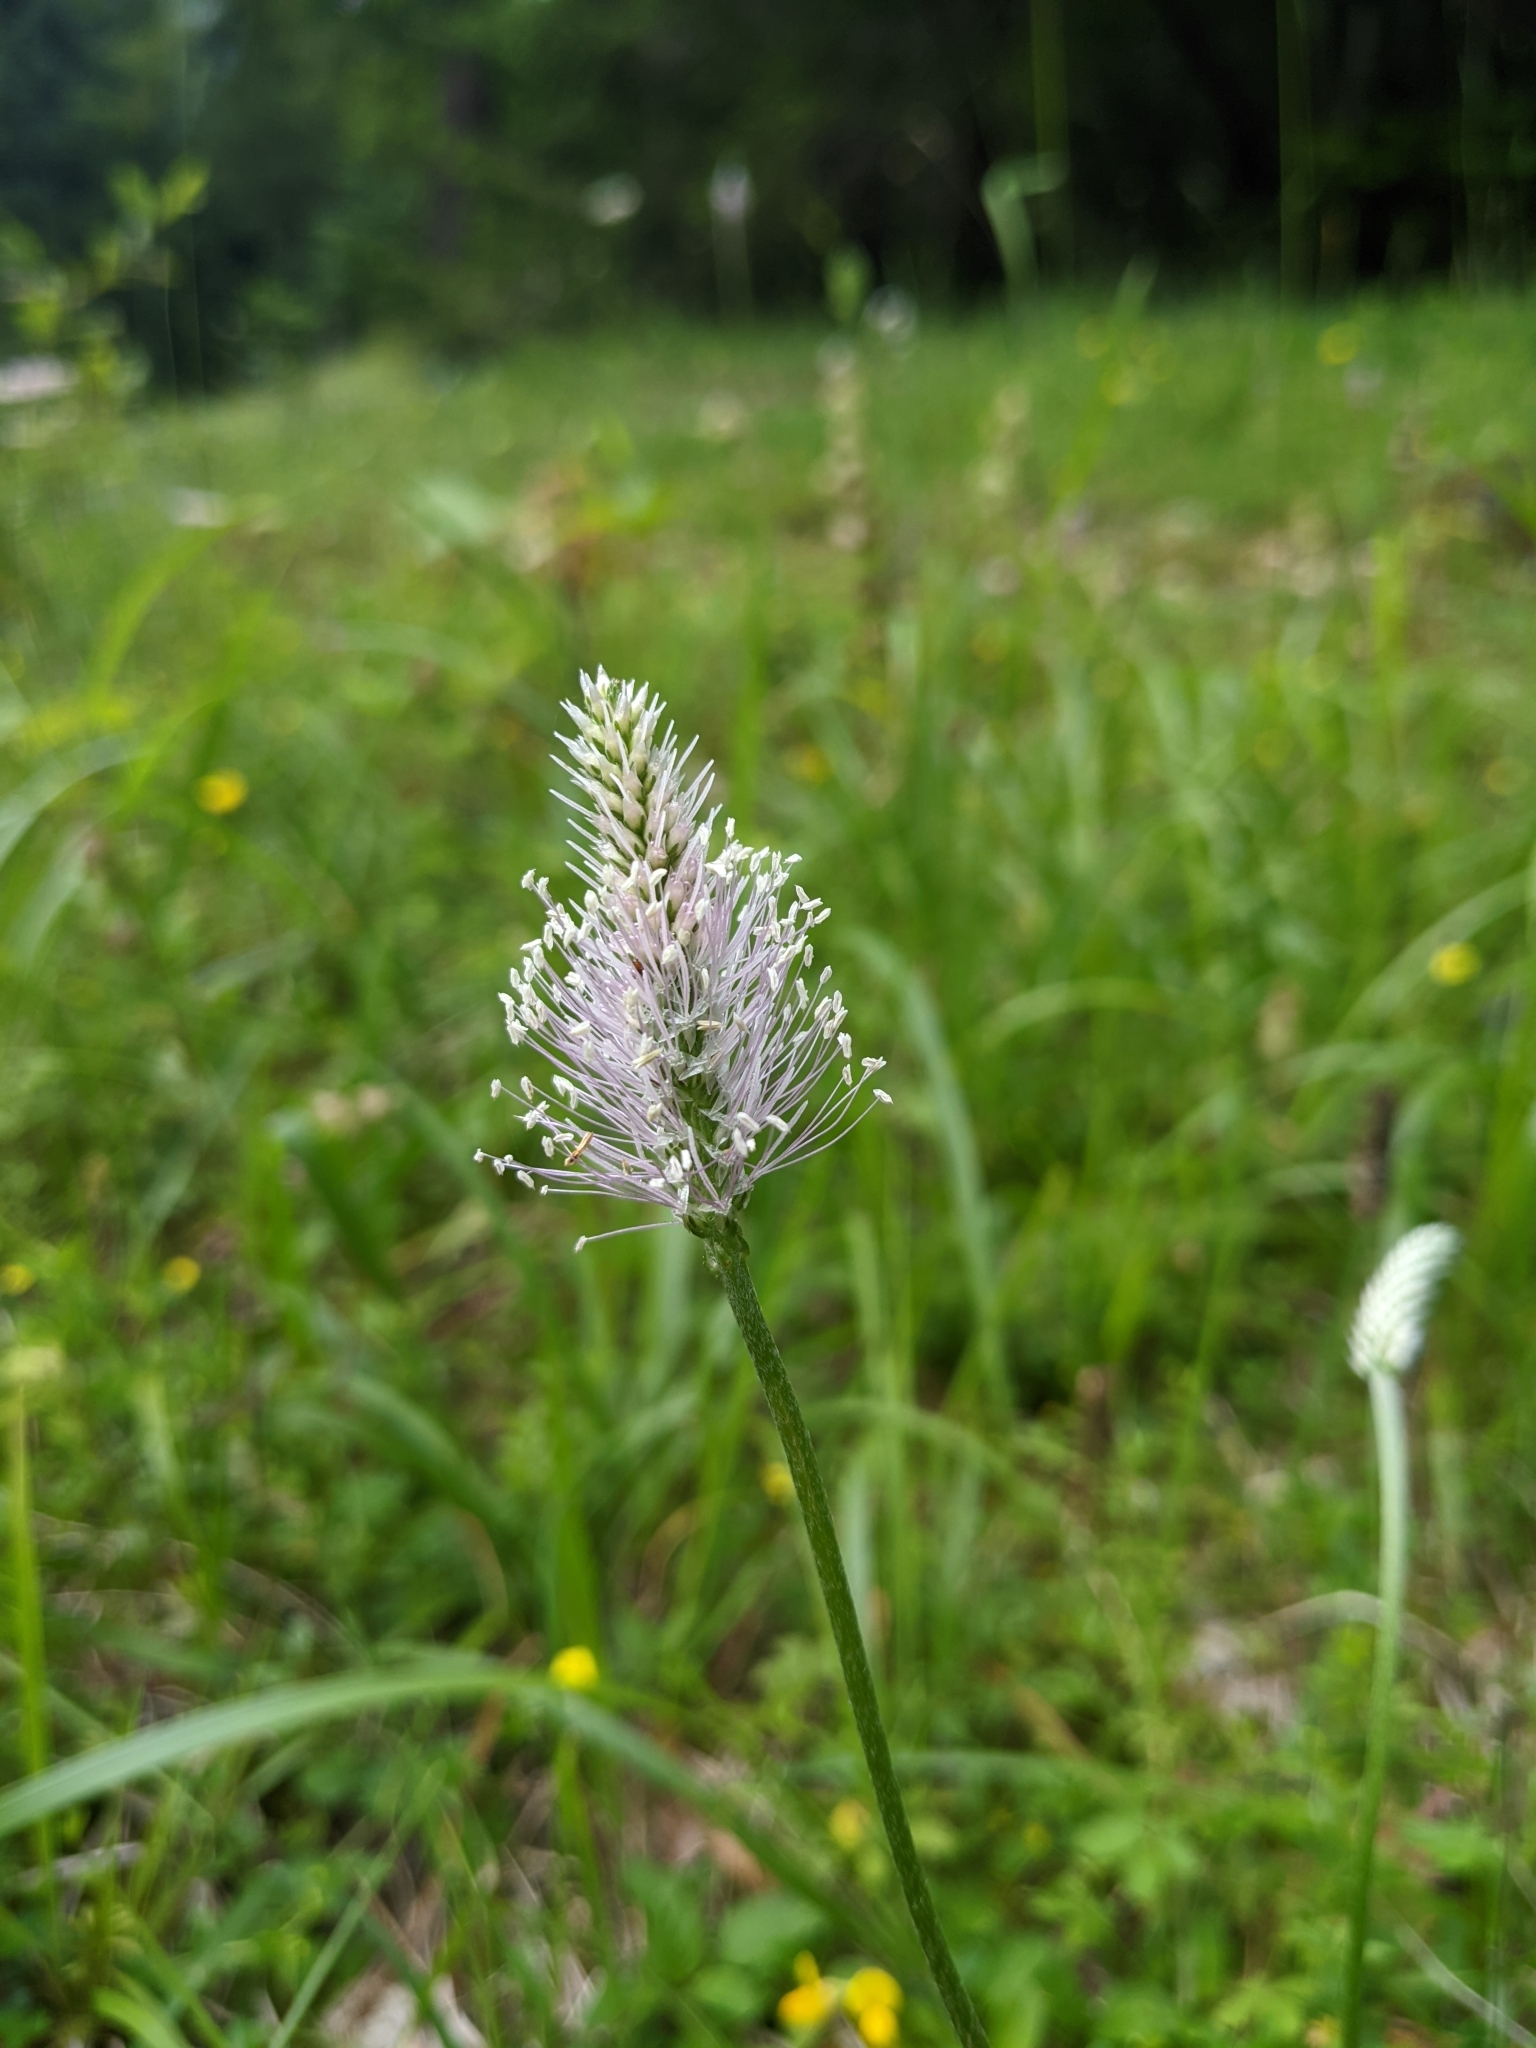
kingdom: Plantae
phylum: Tracheophyta
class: Magnoliopsida
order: Lamiales
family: Plantaginaceae
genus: Plantago
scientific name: Plantago media
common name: Hoary plantain
